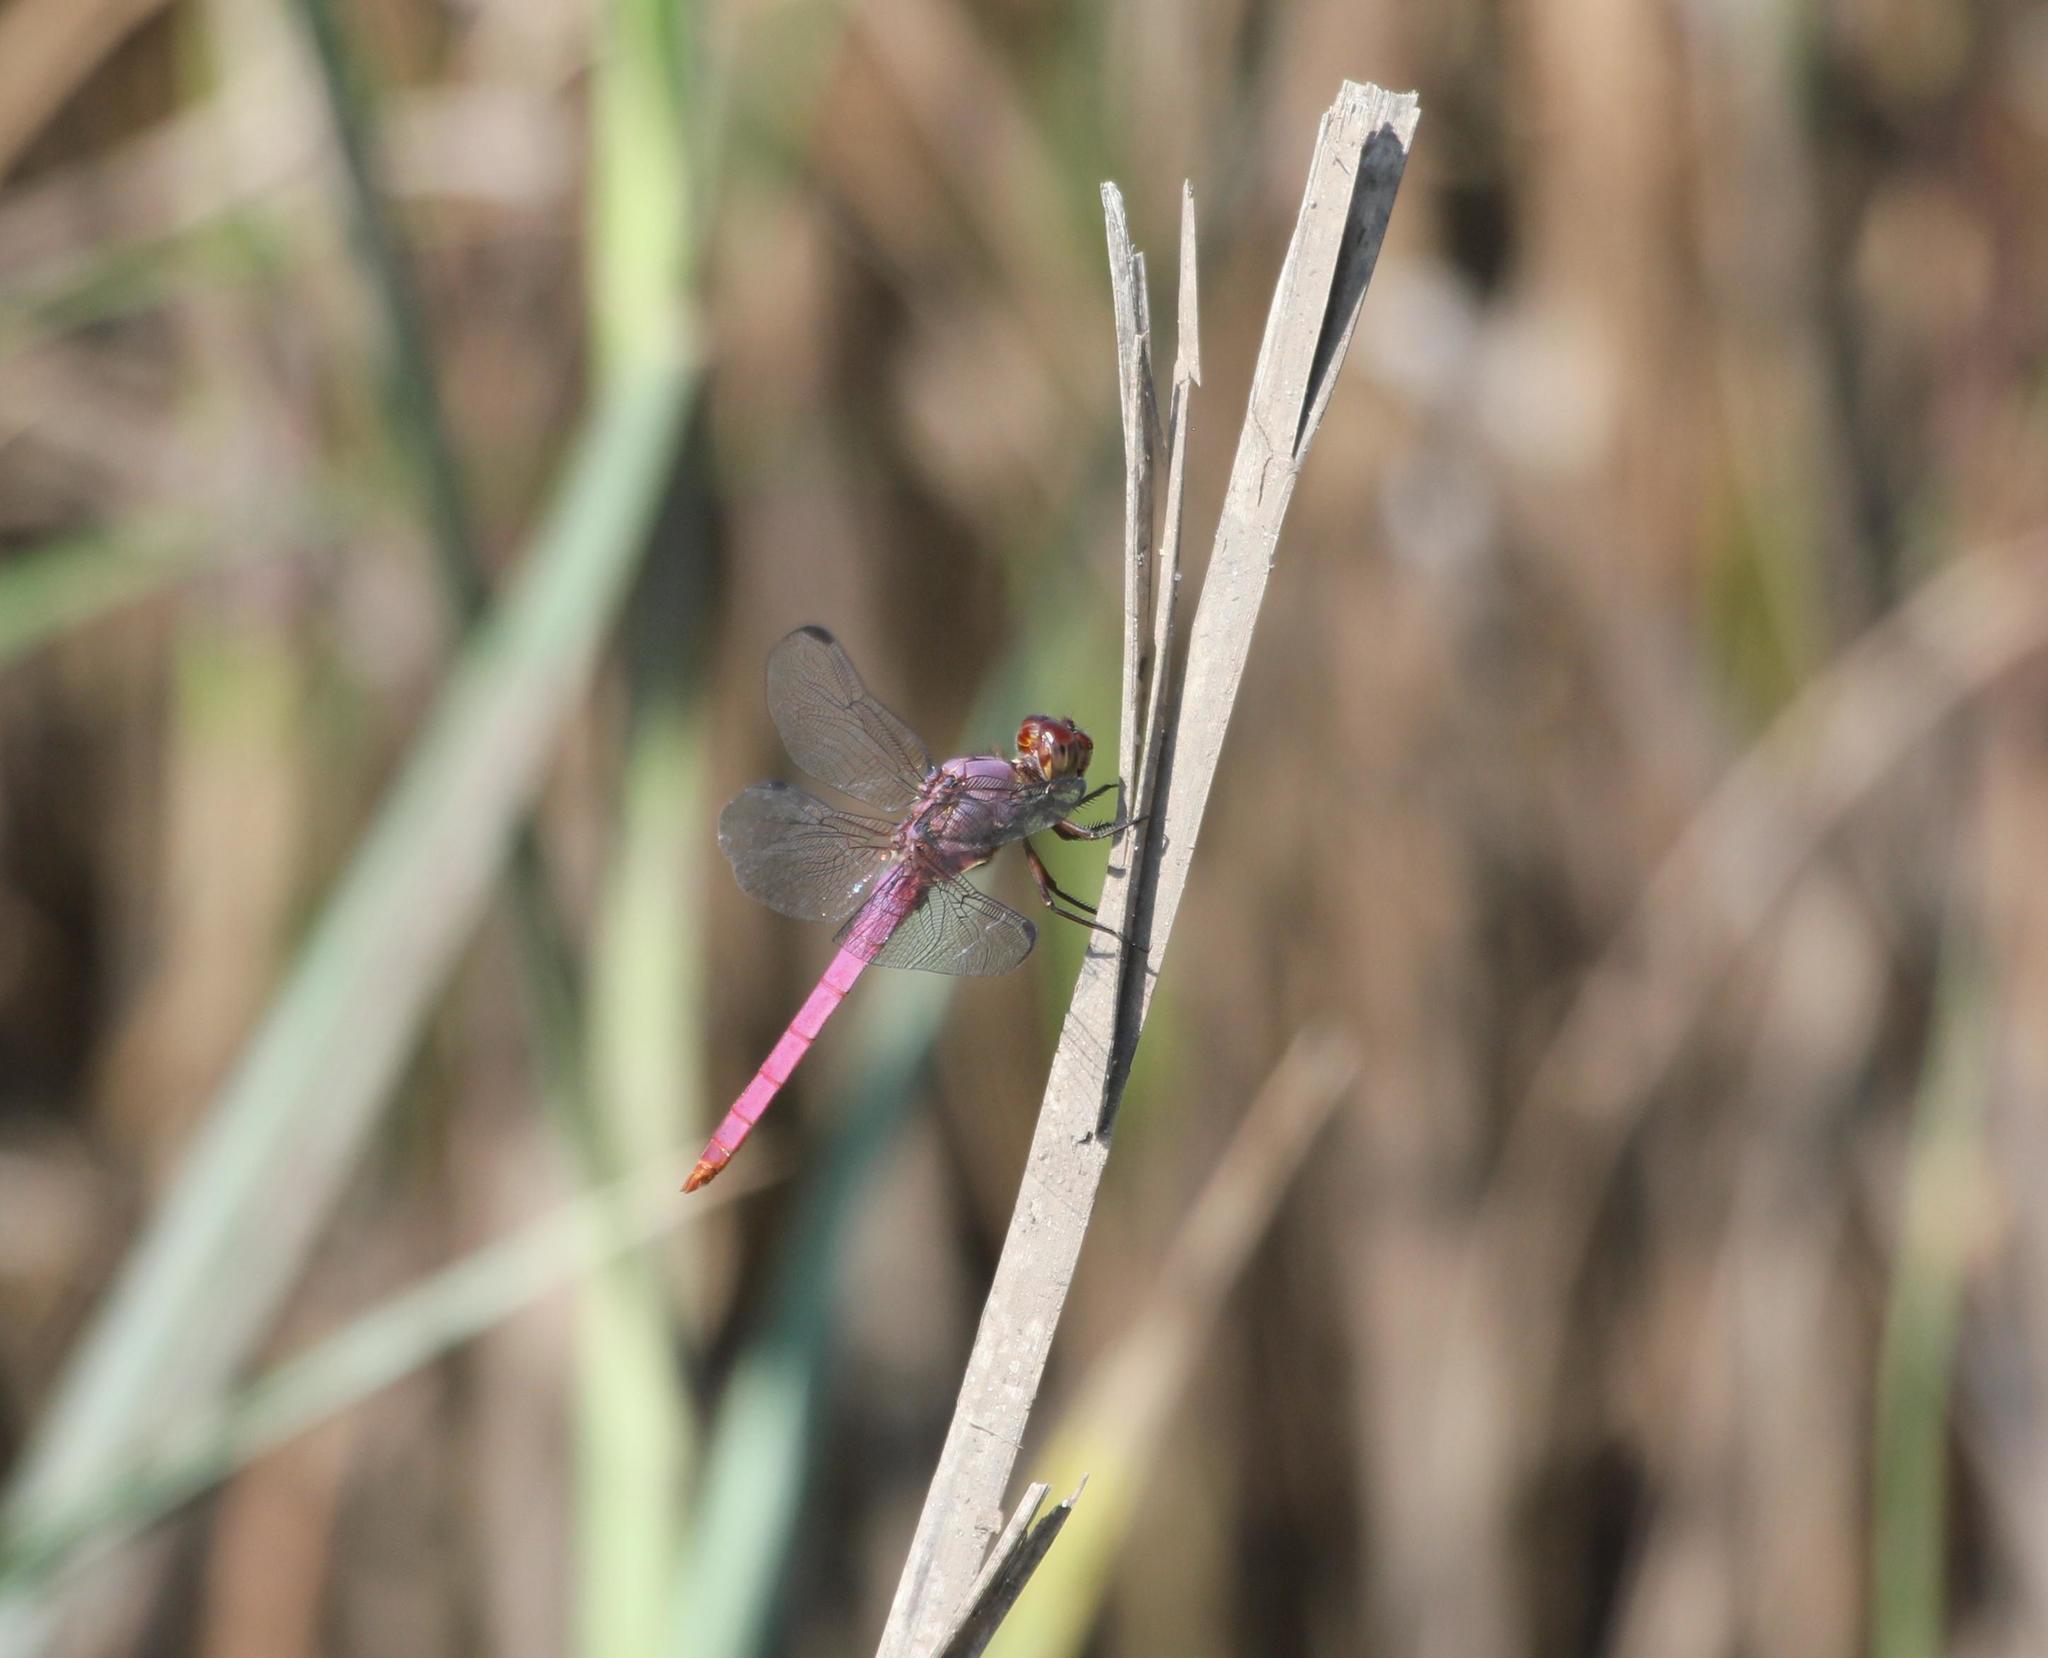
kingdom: Animalia
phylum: Arthropoda
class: Insecta
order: Odonata
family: Libellulidae
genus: Orthemis
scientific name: Orthemis ferruginea
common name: Roseate skimmer
